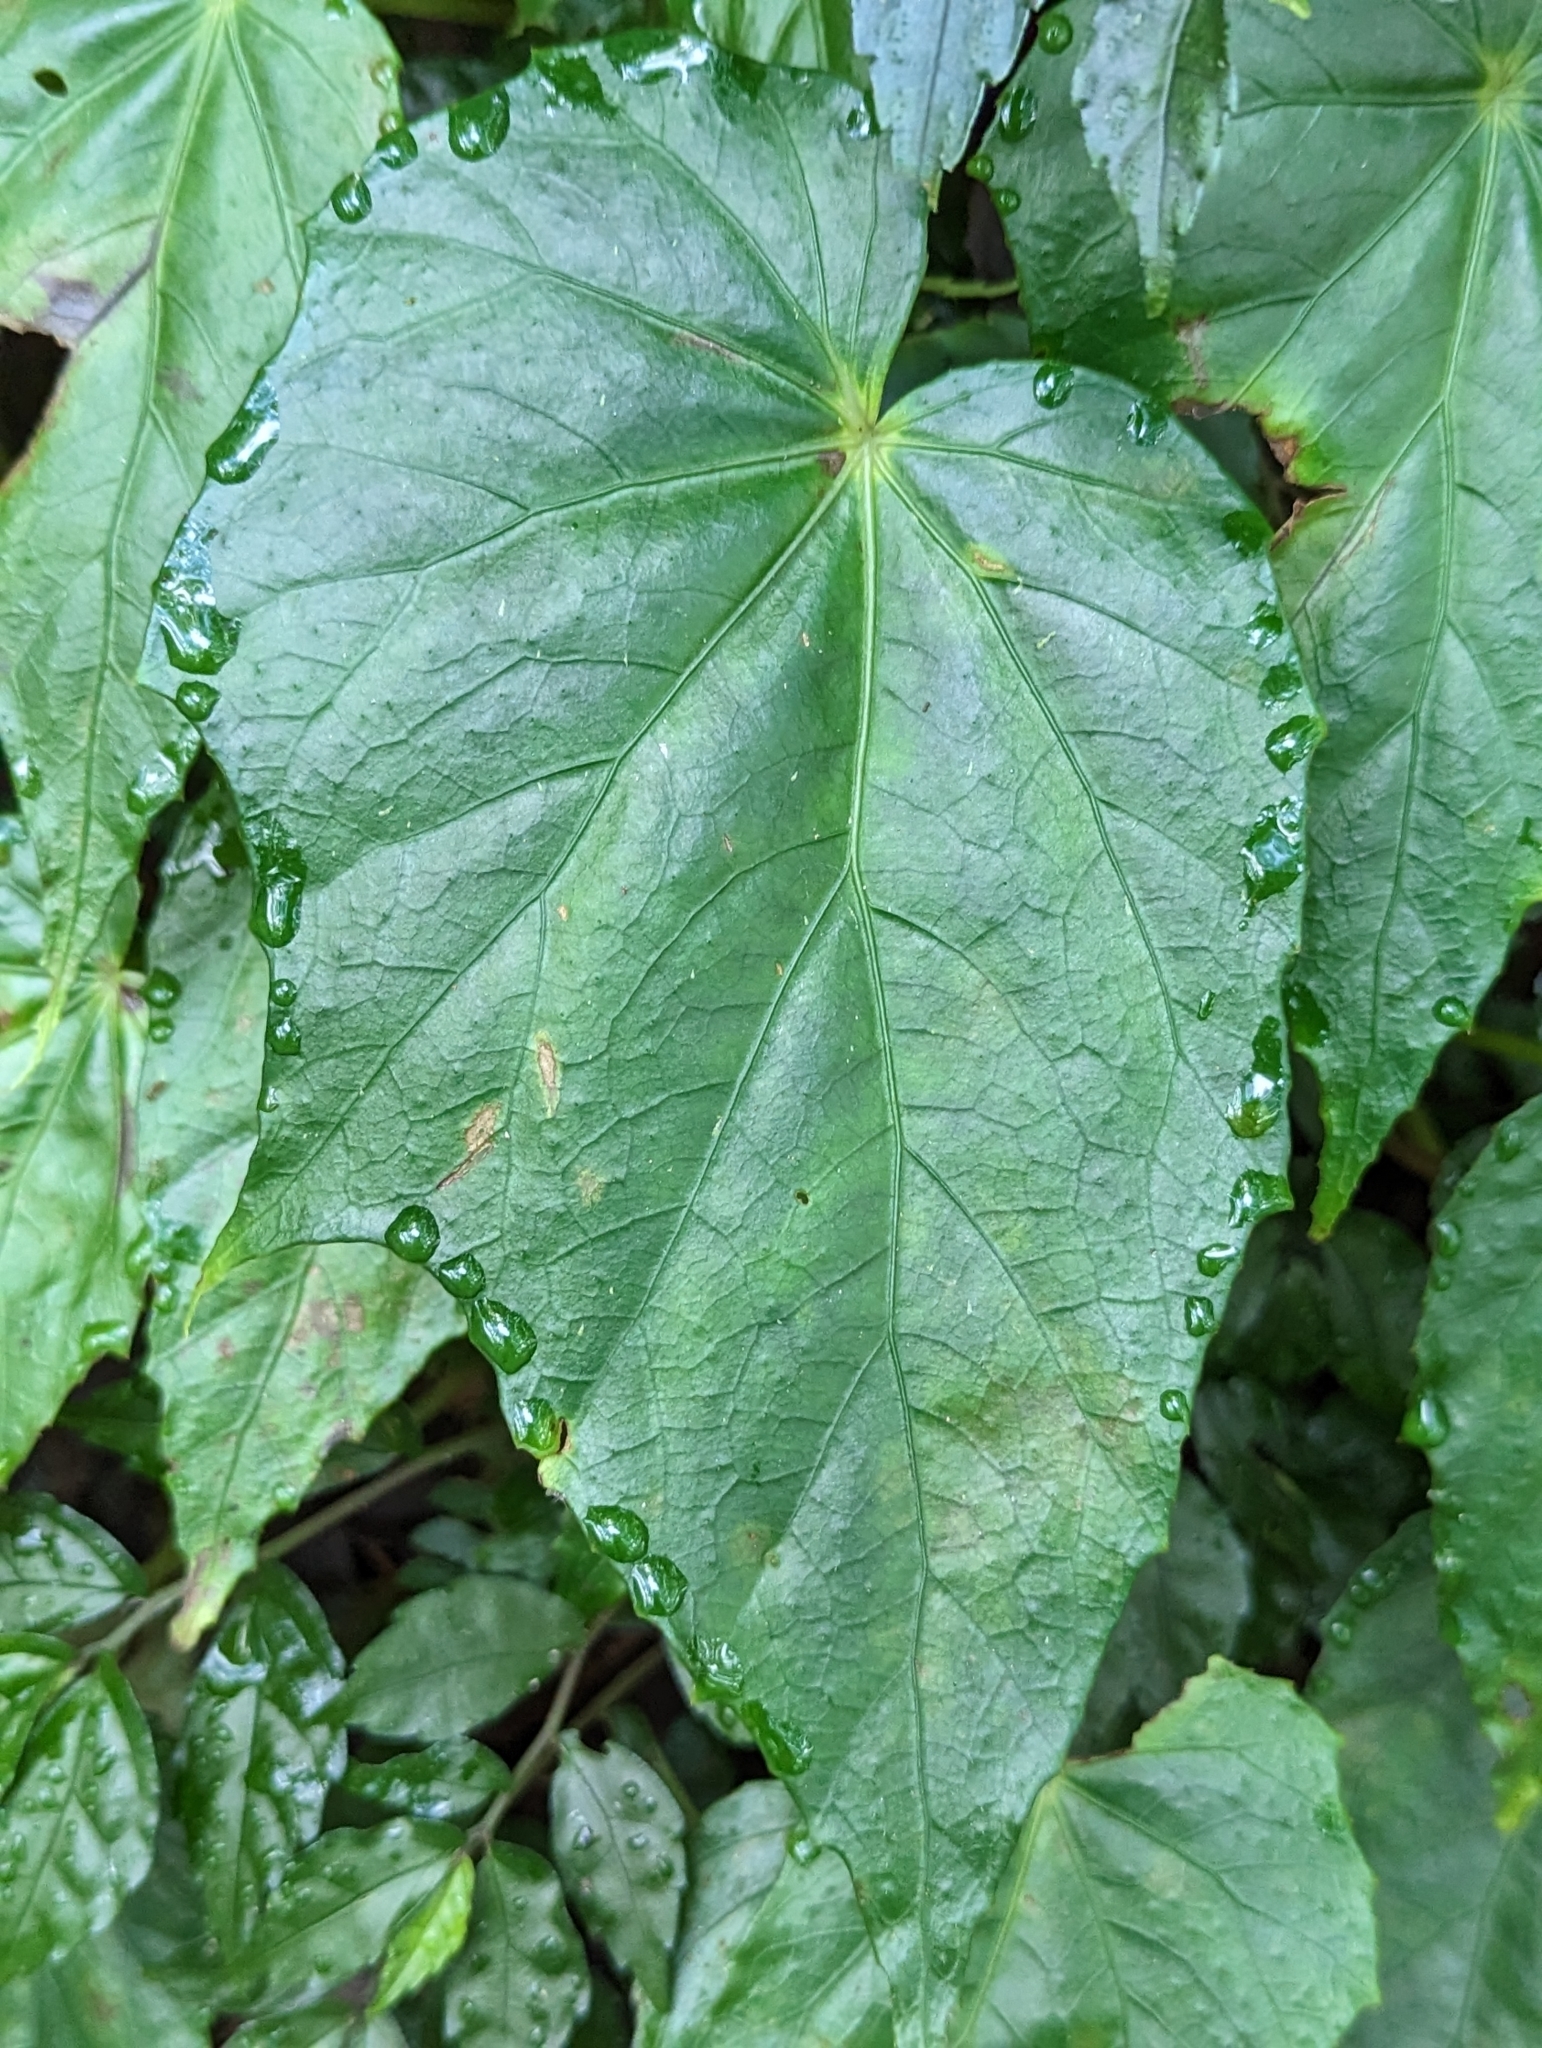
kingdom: Plantae
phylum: Tracheophyta
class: Magnoliopsida
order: Cucurbitales
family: Begoniaceae
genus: Begonia
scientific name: Begonia formosana
